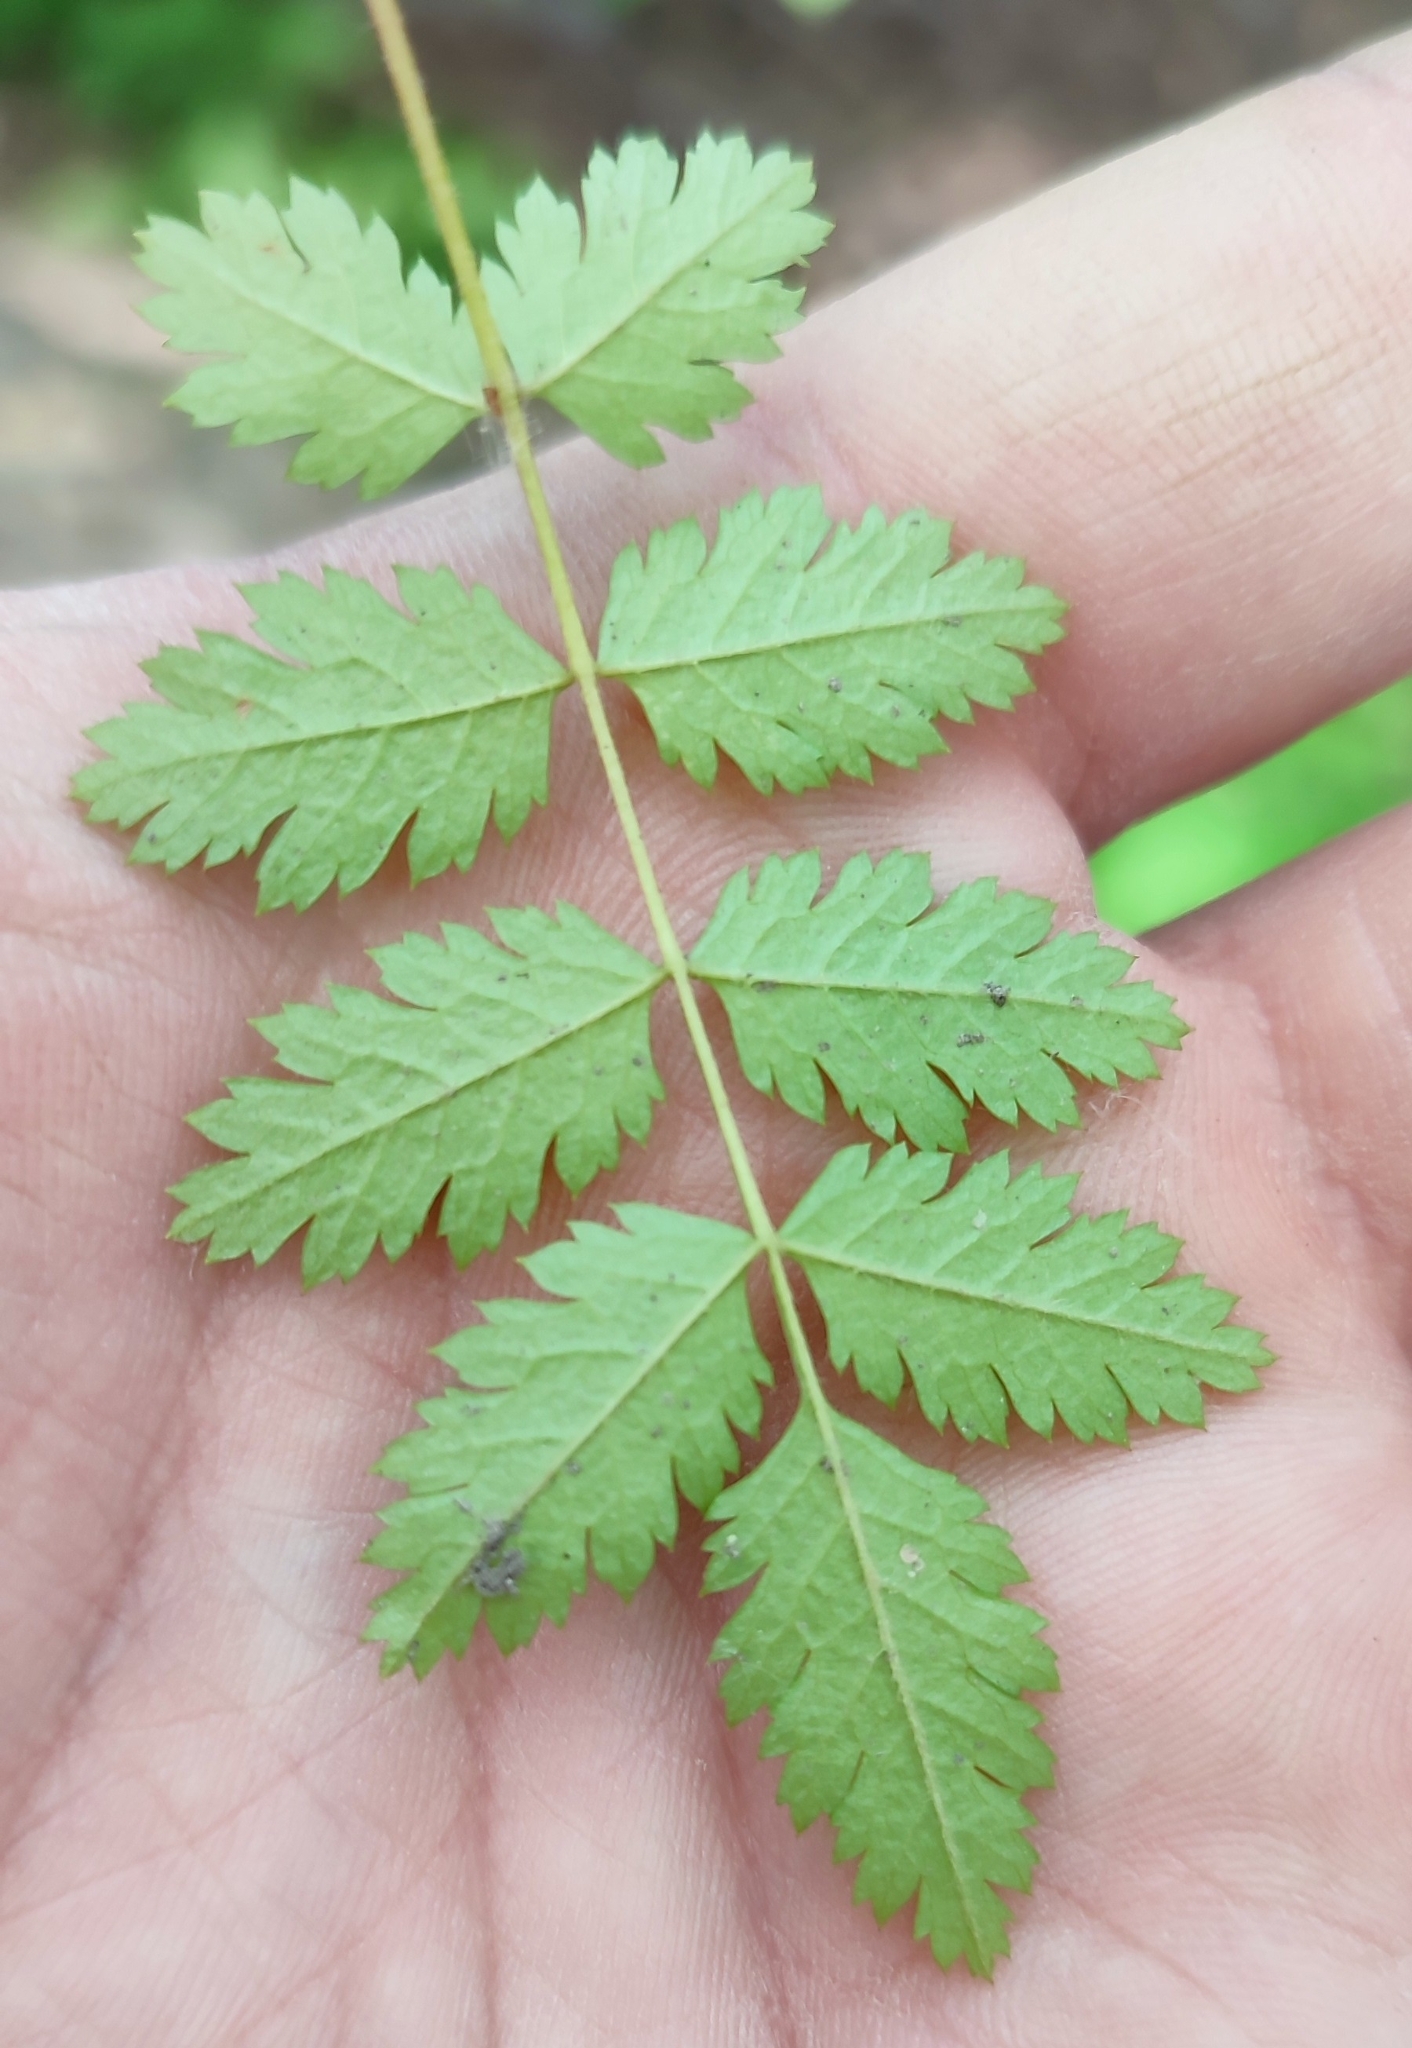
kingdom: Plantae
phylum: Tracheophyta
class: Magnoliopsida
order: Rosales
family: Rosaceae
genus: Sorbus
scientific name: Sorbus aucuparia
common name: Rowan
